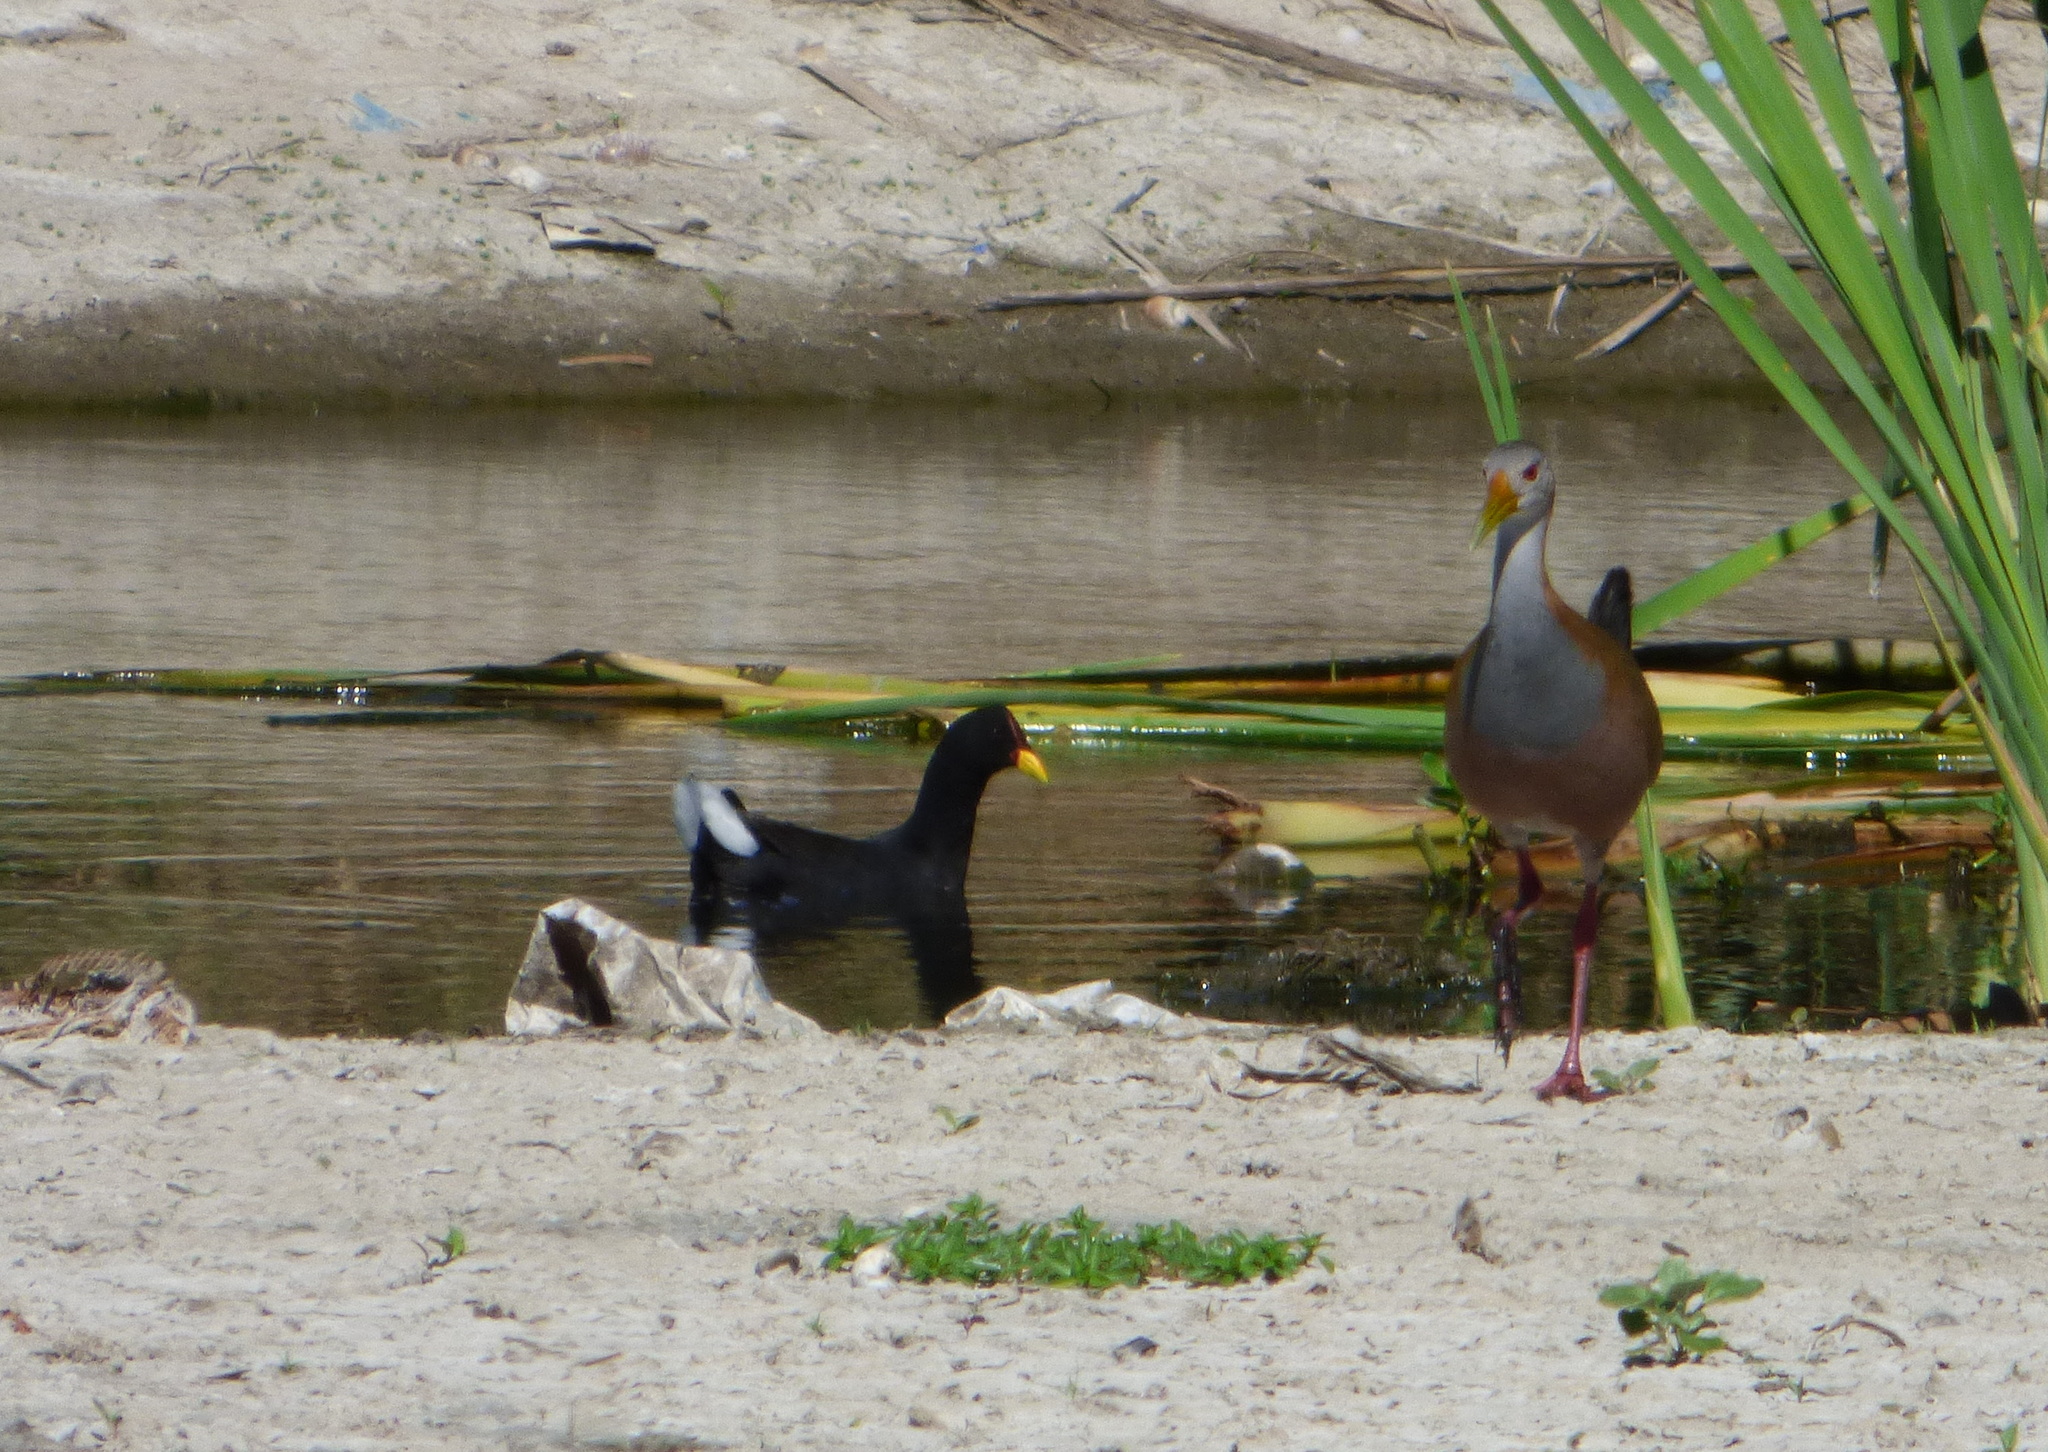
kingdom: Animalia
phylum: Chordata
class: Aves
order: Gruiformes
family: Rallidae
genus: Fulica
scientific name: Fulica rufifrons
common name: Red-fronted coot
